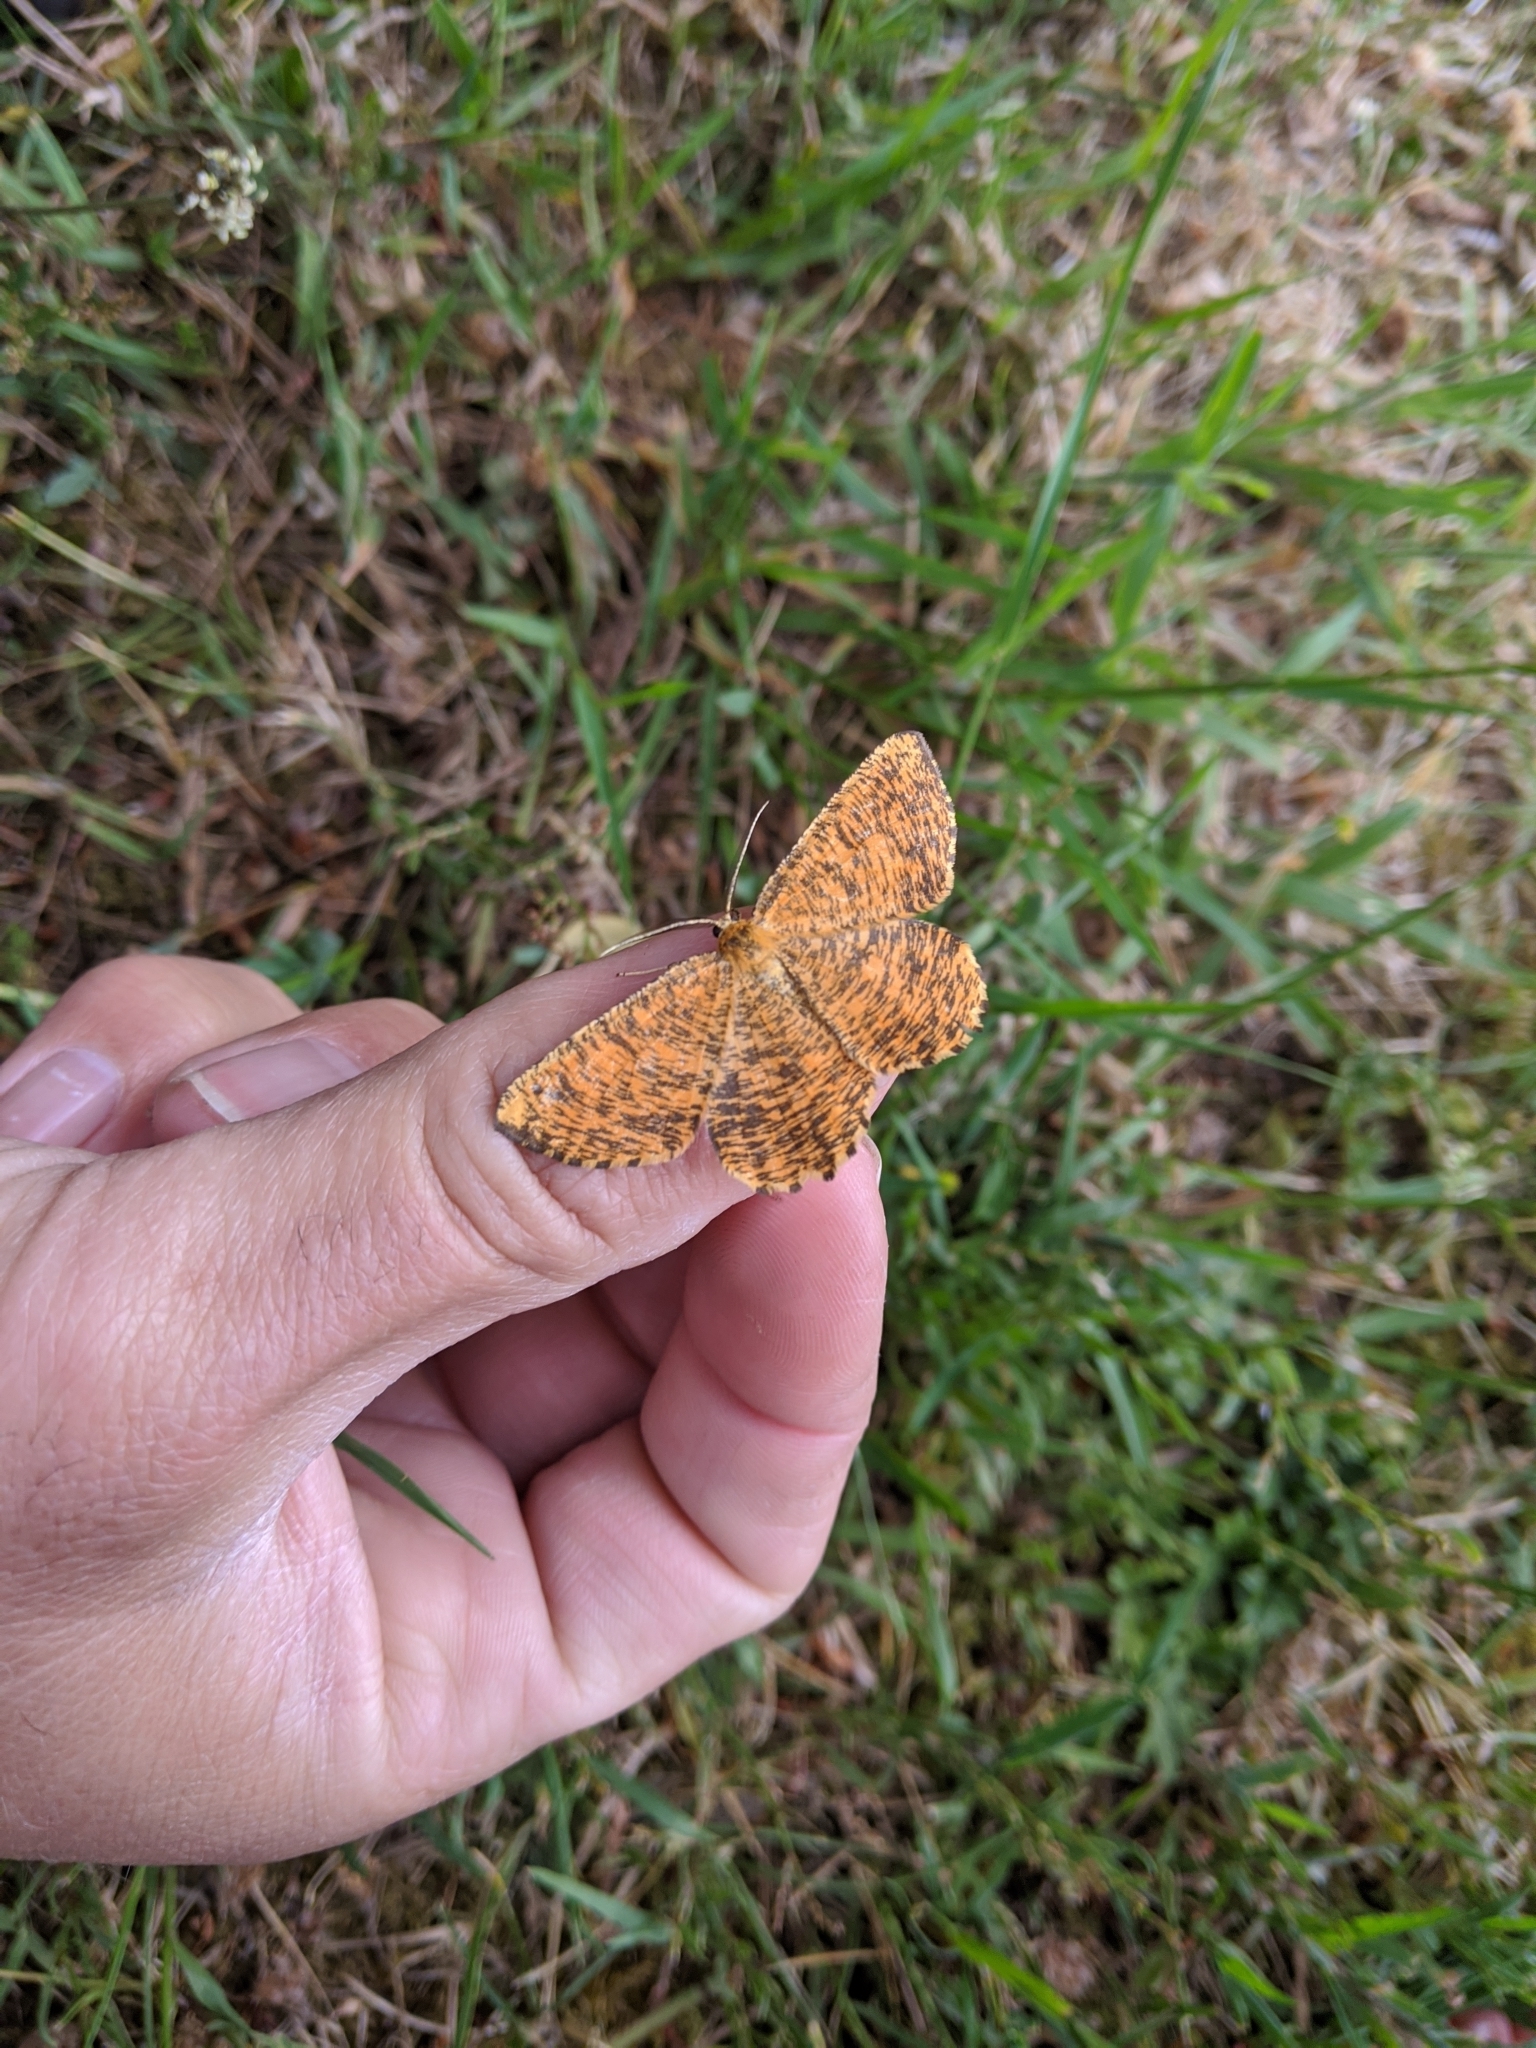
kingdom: Animalia
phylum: Arthropoda
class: Insecta
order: Lepidoptera
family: Geometridae
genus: Angerona
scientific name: Angerona prunaria
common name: Orange moth
